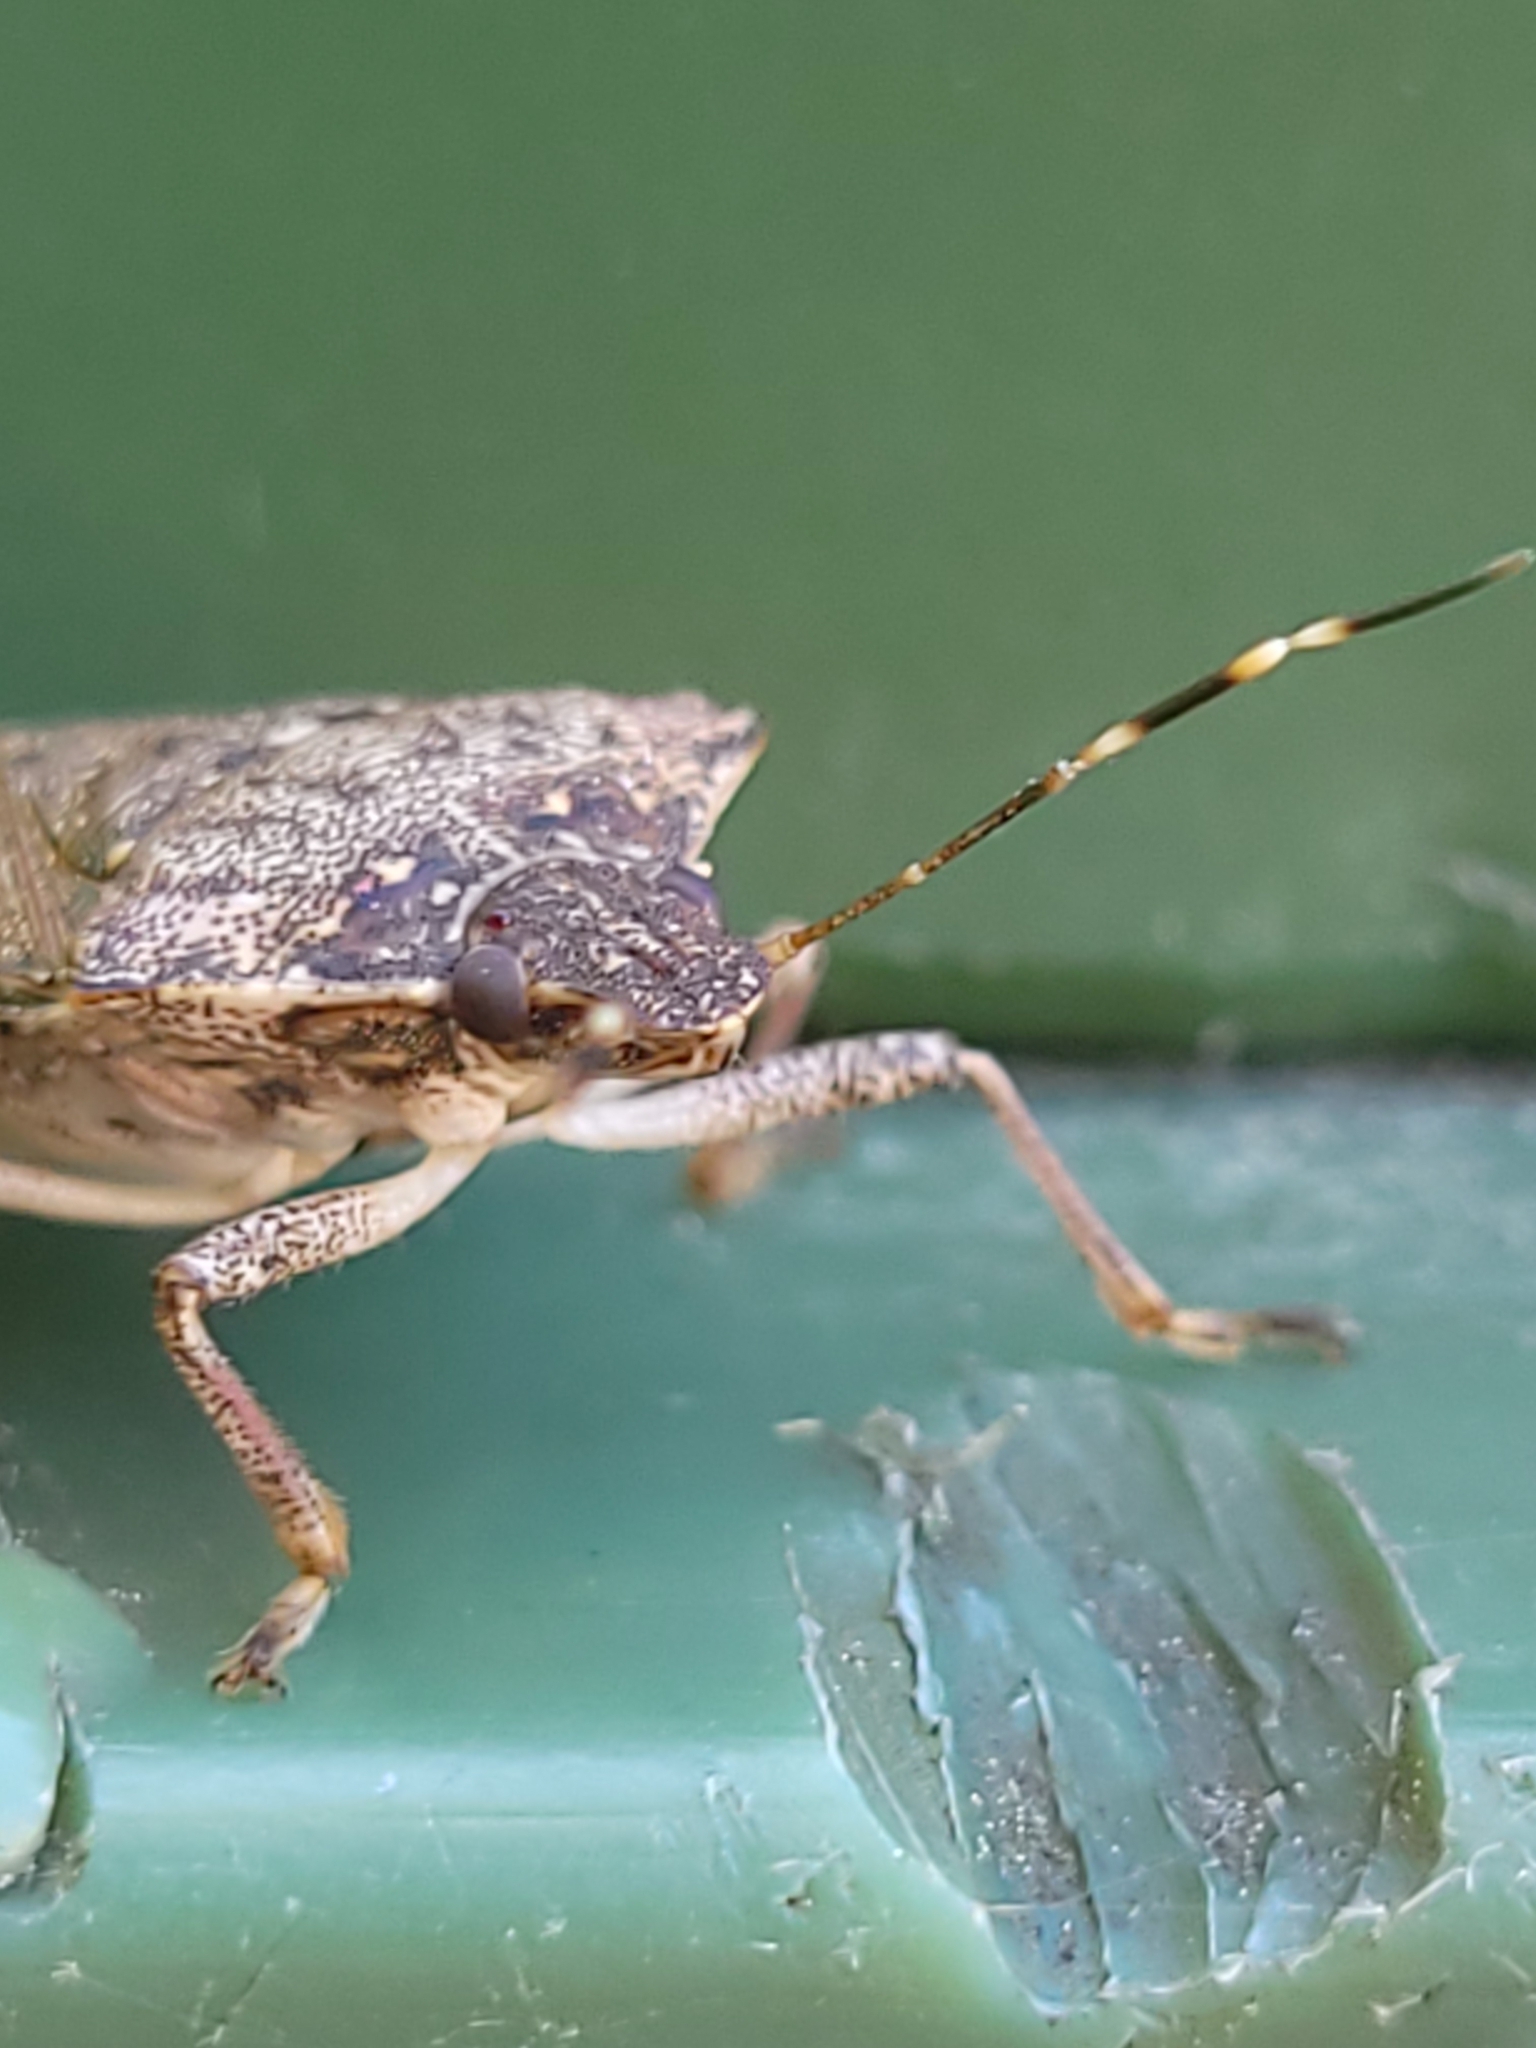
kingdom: Animalia
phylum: Arthropoda
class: Insecta
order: Hemiptera
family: Pentatomidae
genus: Halyomorpha
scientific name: Halyomorpha halys
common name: Brown marmorated stink bug
